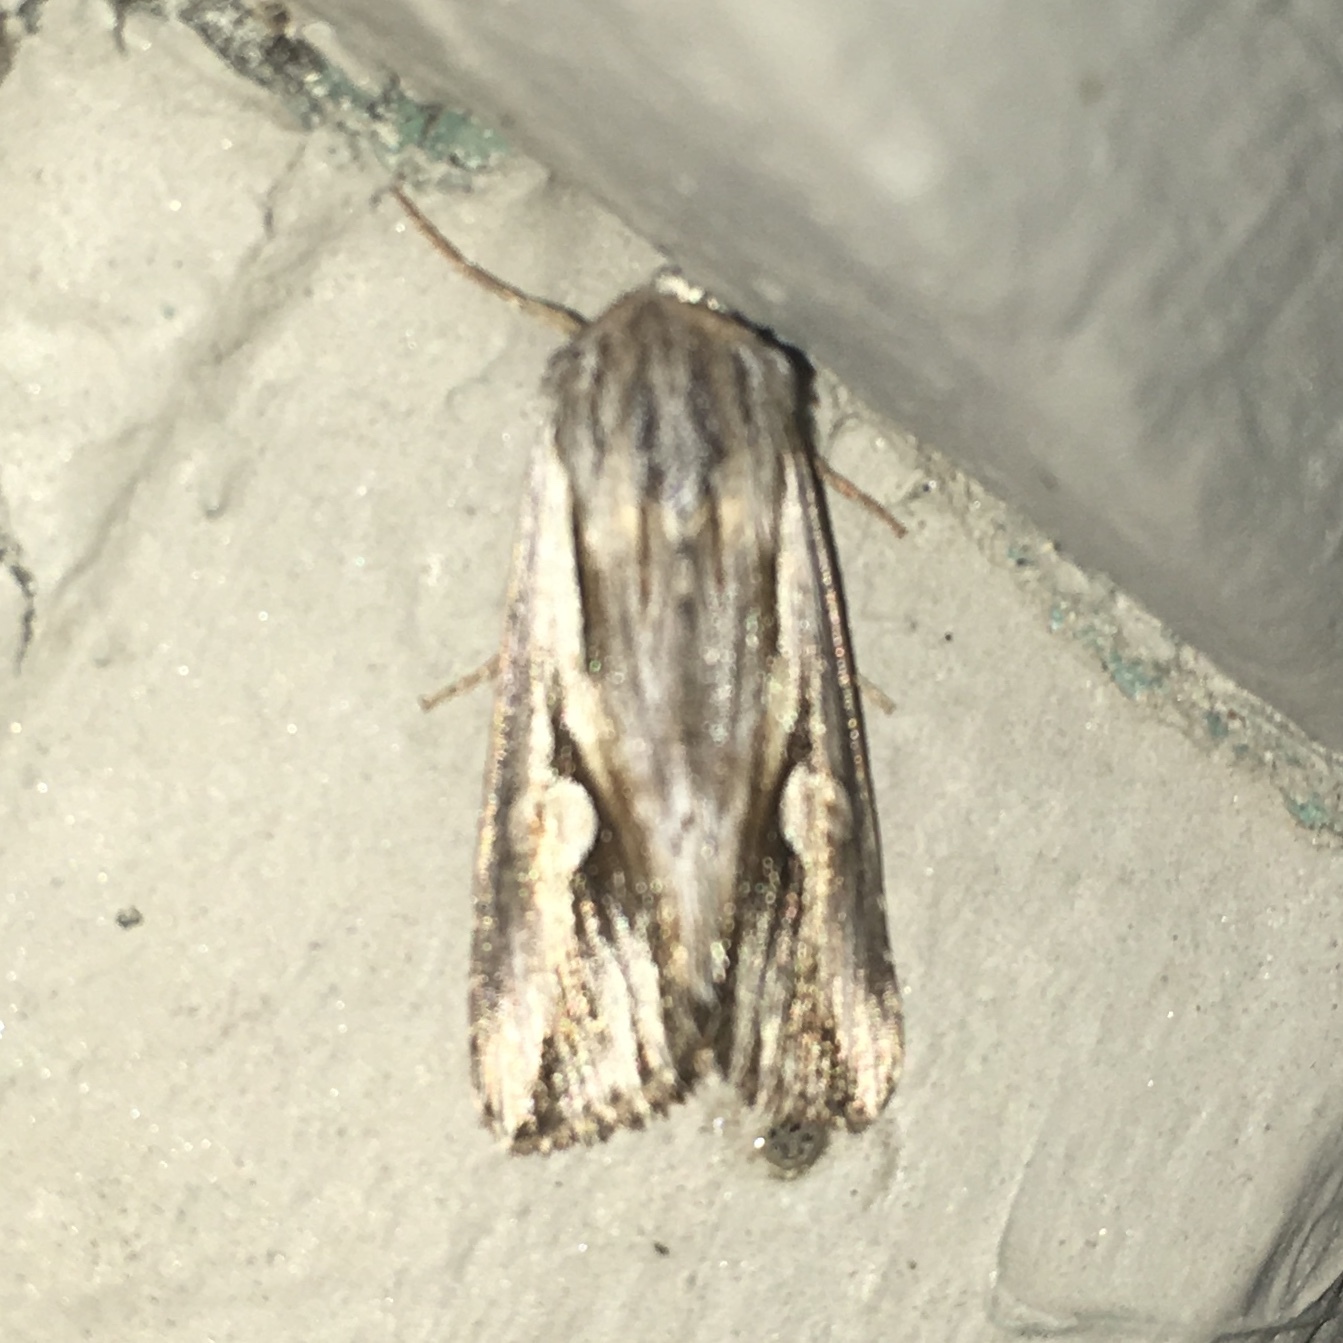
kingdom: Animalia
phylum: Arthropoda
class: Insecta
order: Lepidoptera
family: Noctuidae
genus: Nedra
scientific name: Nedra ramosula
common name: Gray half-spot
